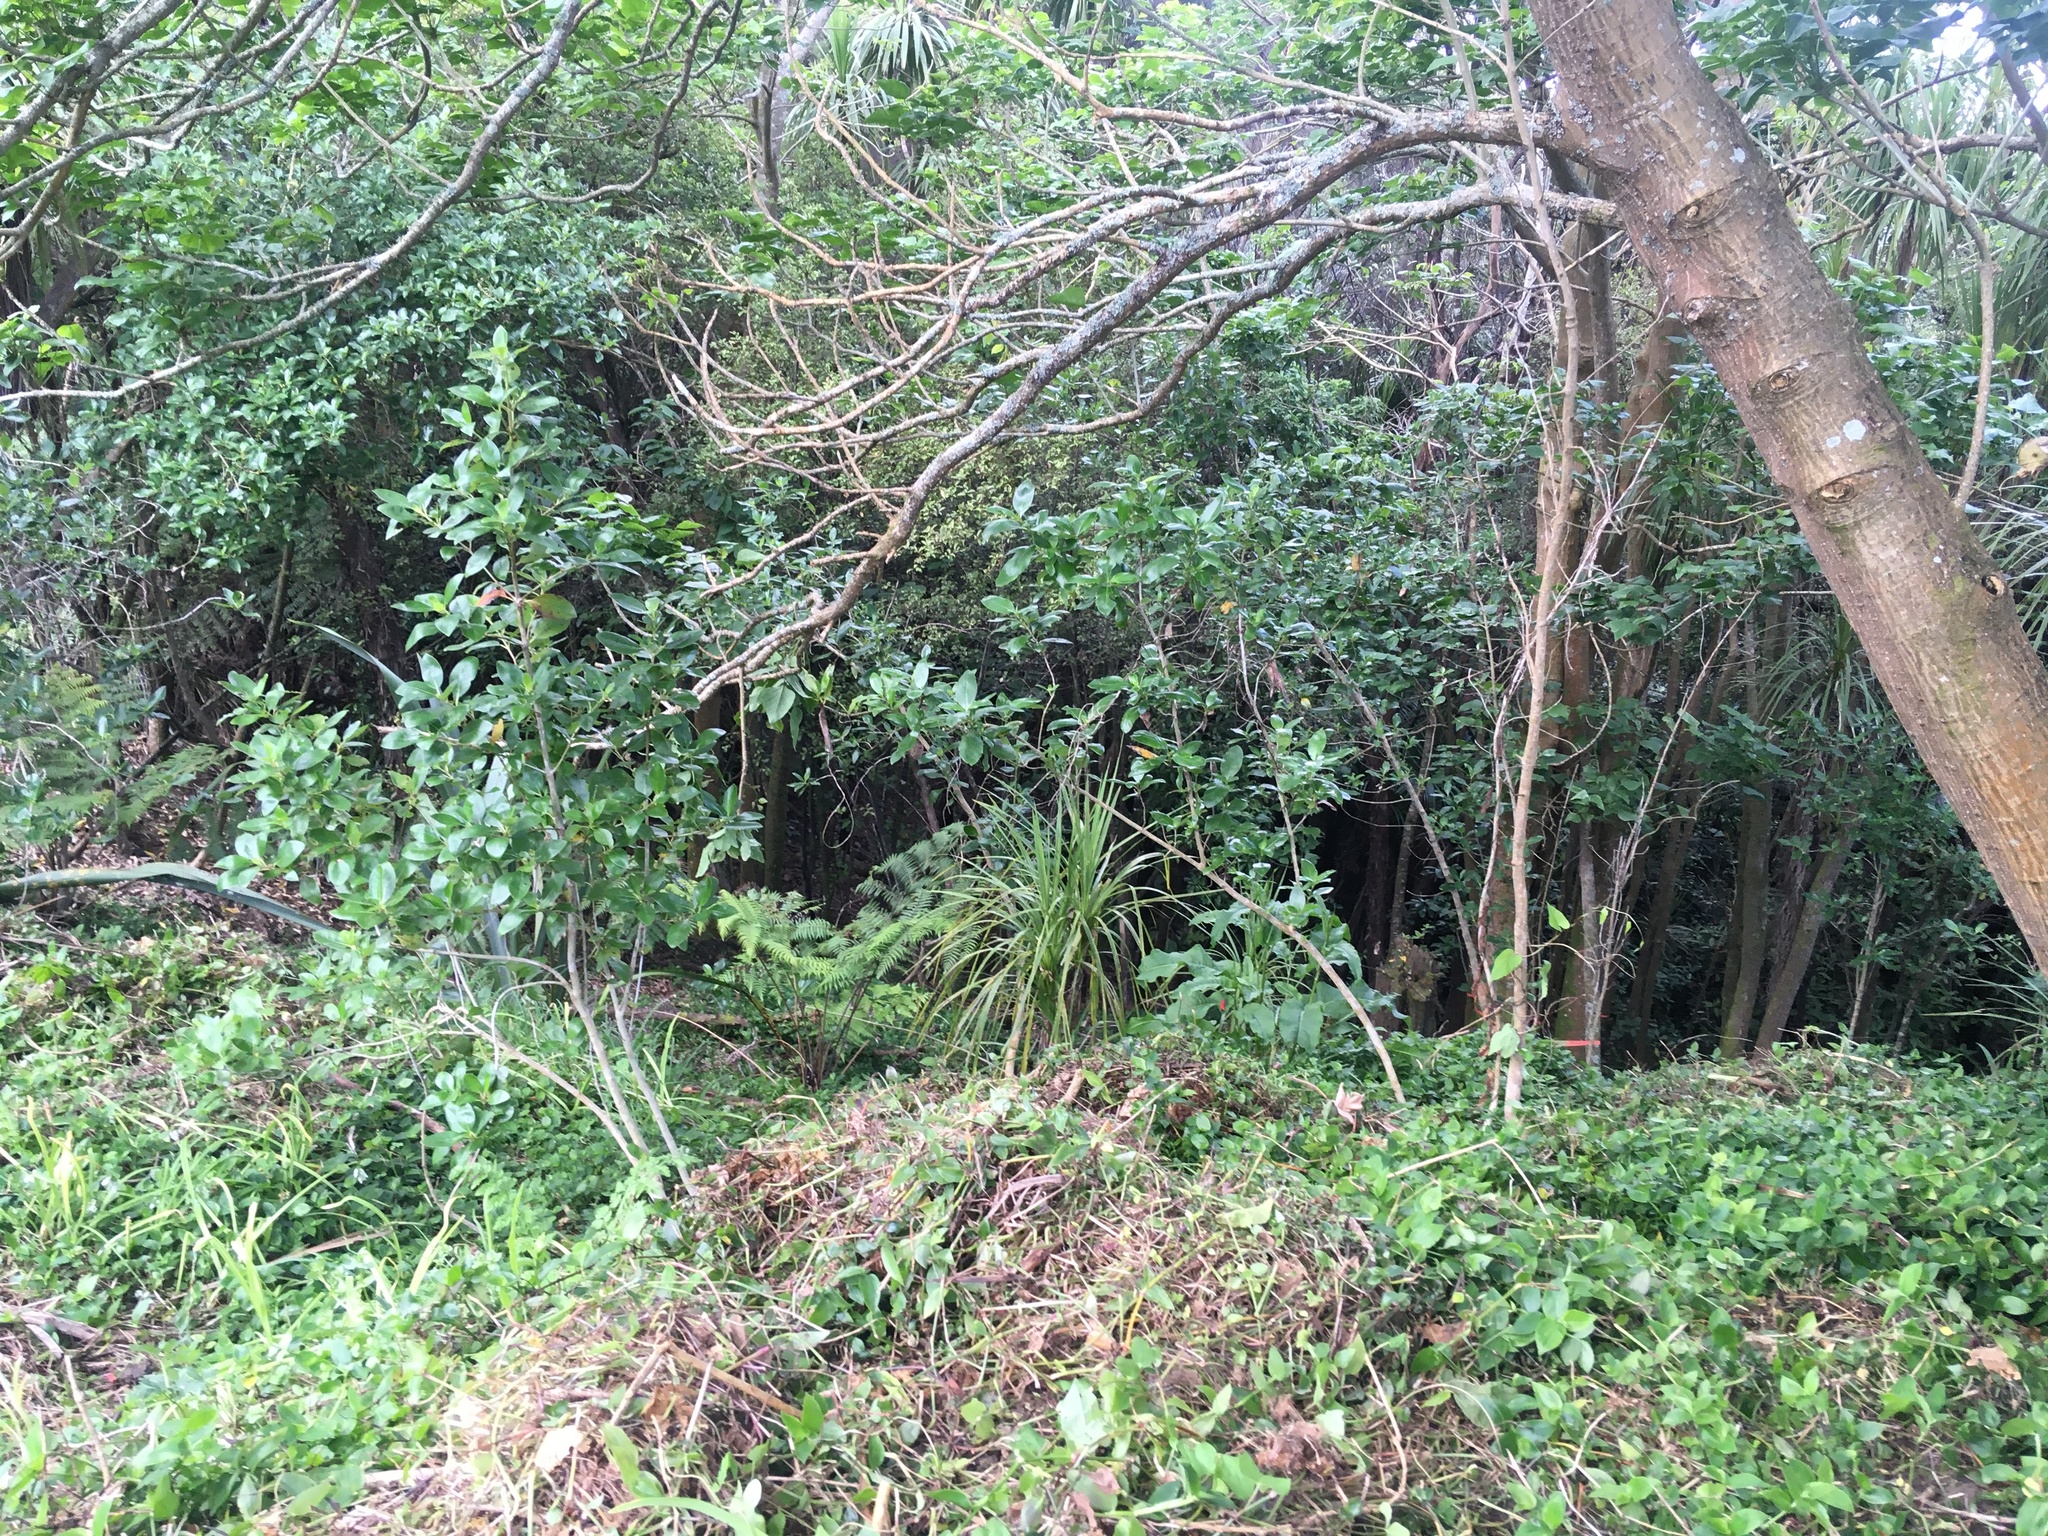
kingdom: Plantae
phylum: Tracheophyta
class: Liliopsida
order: Asparagales
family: Asparagaceae
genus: Cordyline
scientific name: Cordyline australis
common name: Cabbage-palm
